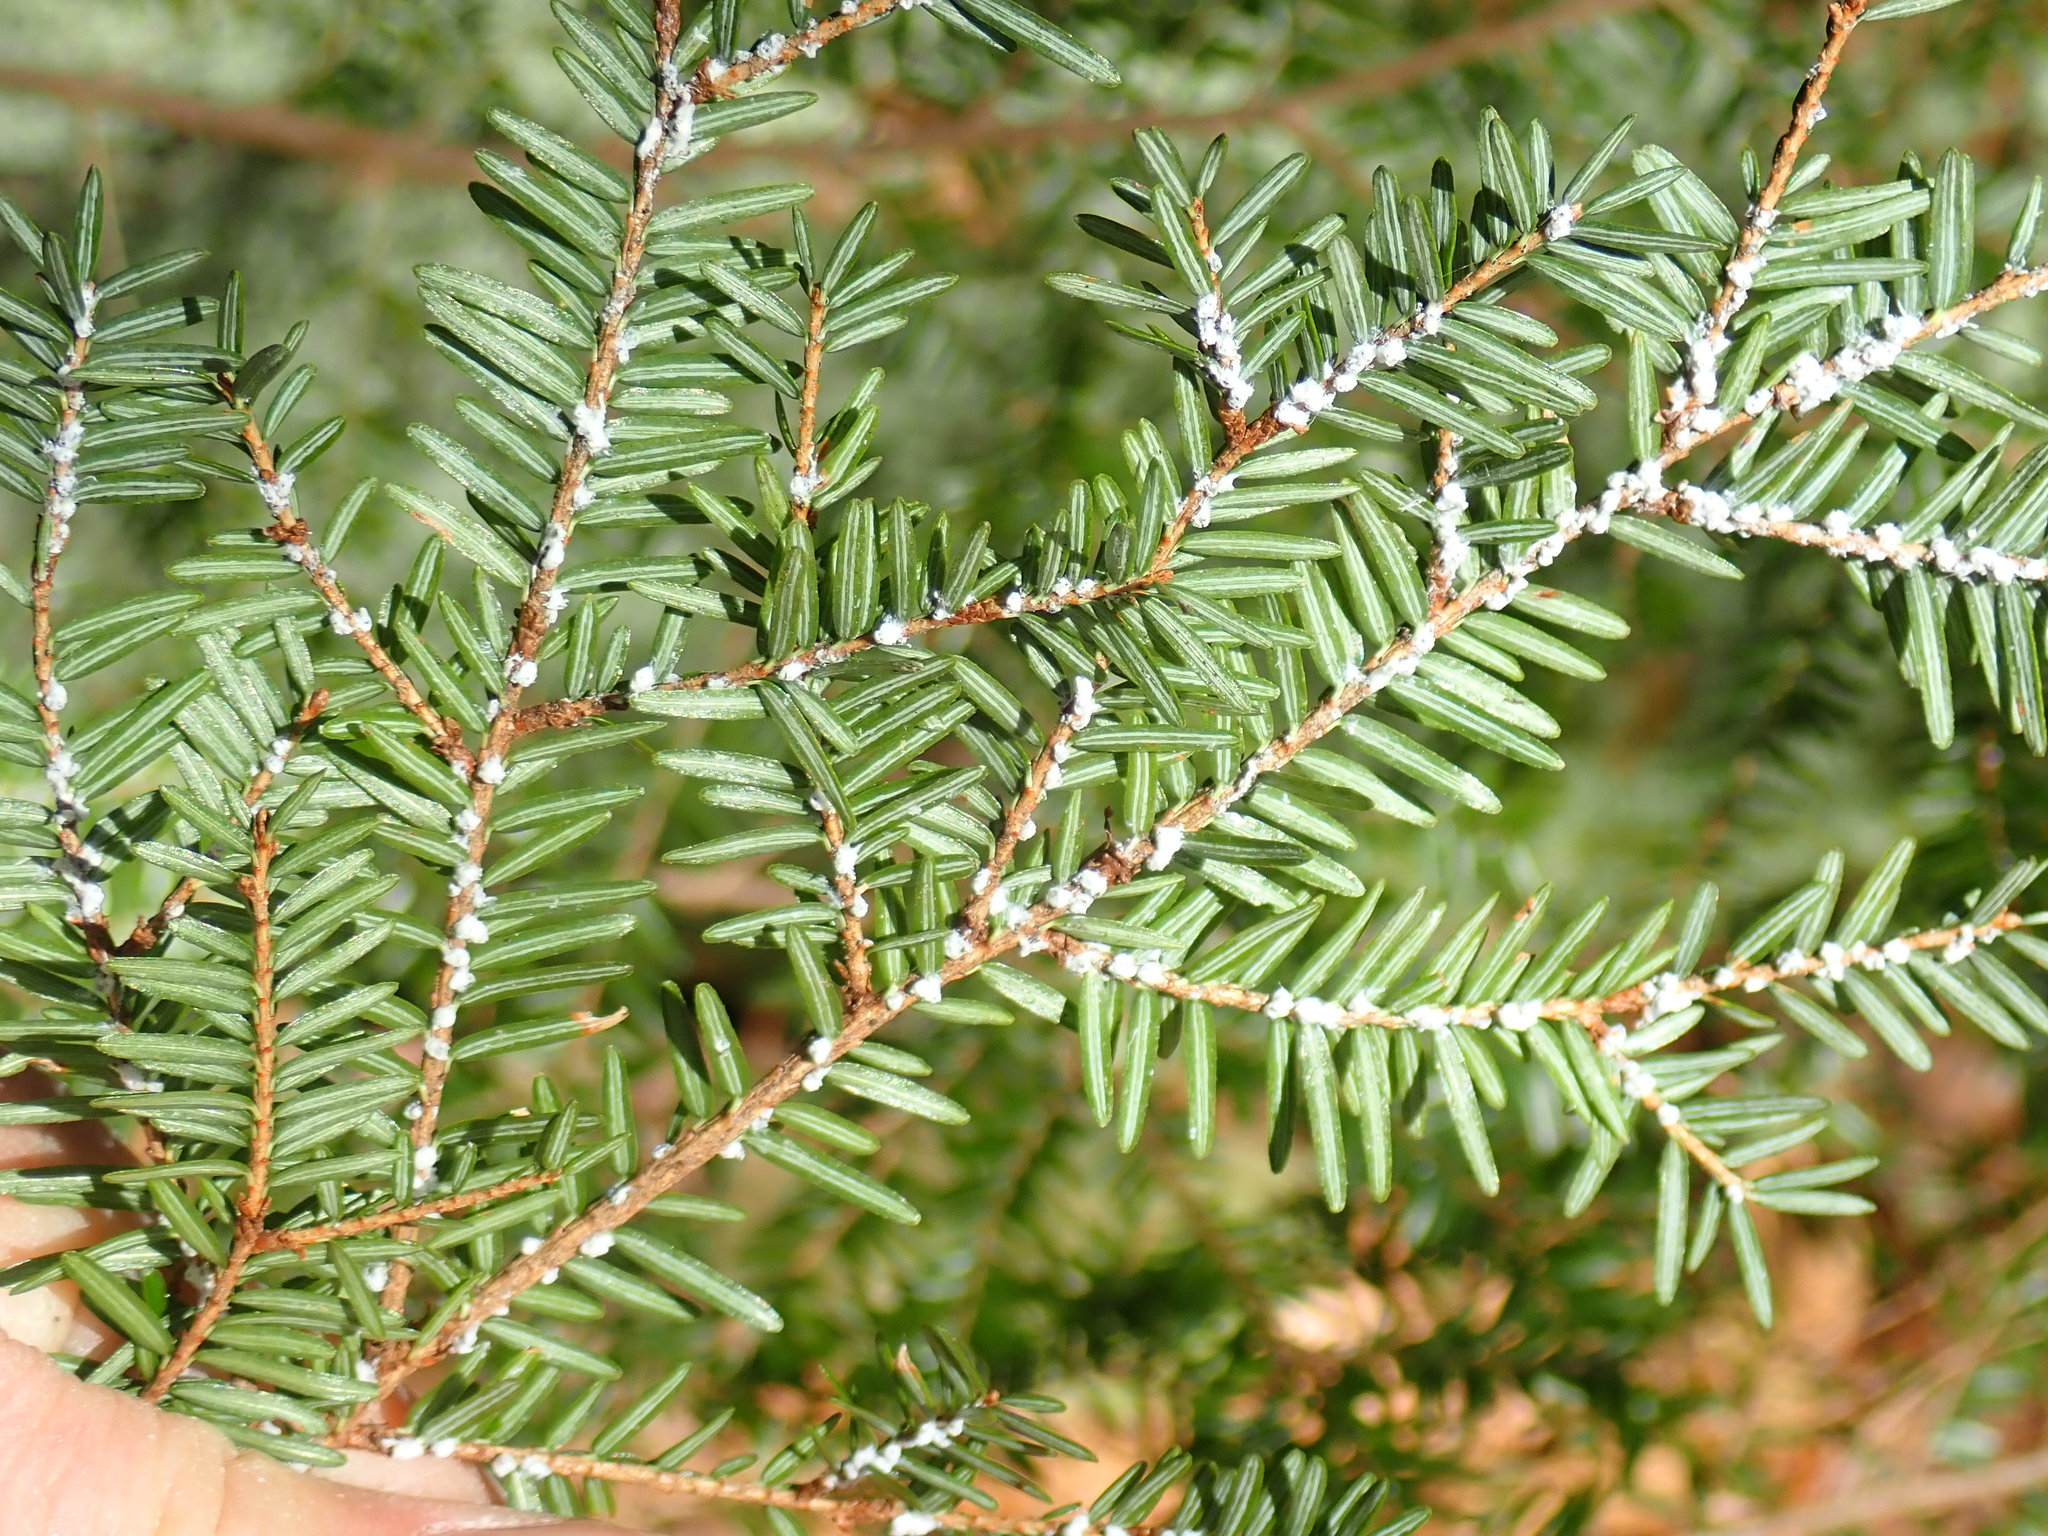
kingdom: Animalia
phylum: Arthropoda
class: Insecta
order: Hemiptera
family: Adelgidae
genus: Adelges
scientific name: Adelges tsugae
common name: Hemlock woolly adelgid
